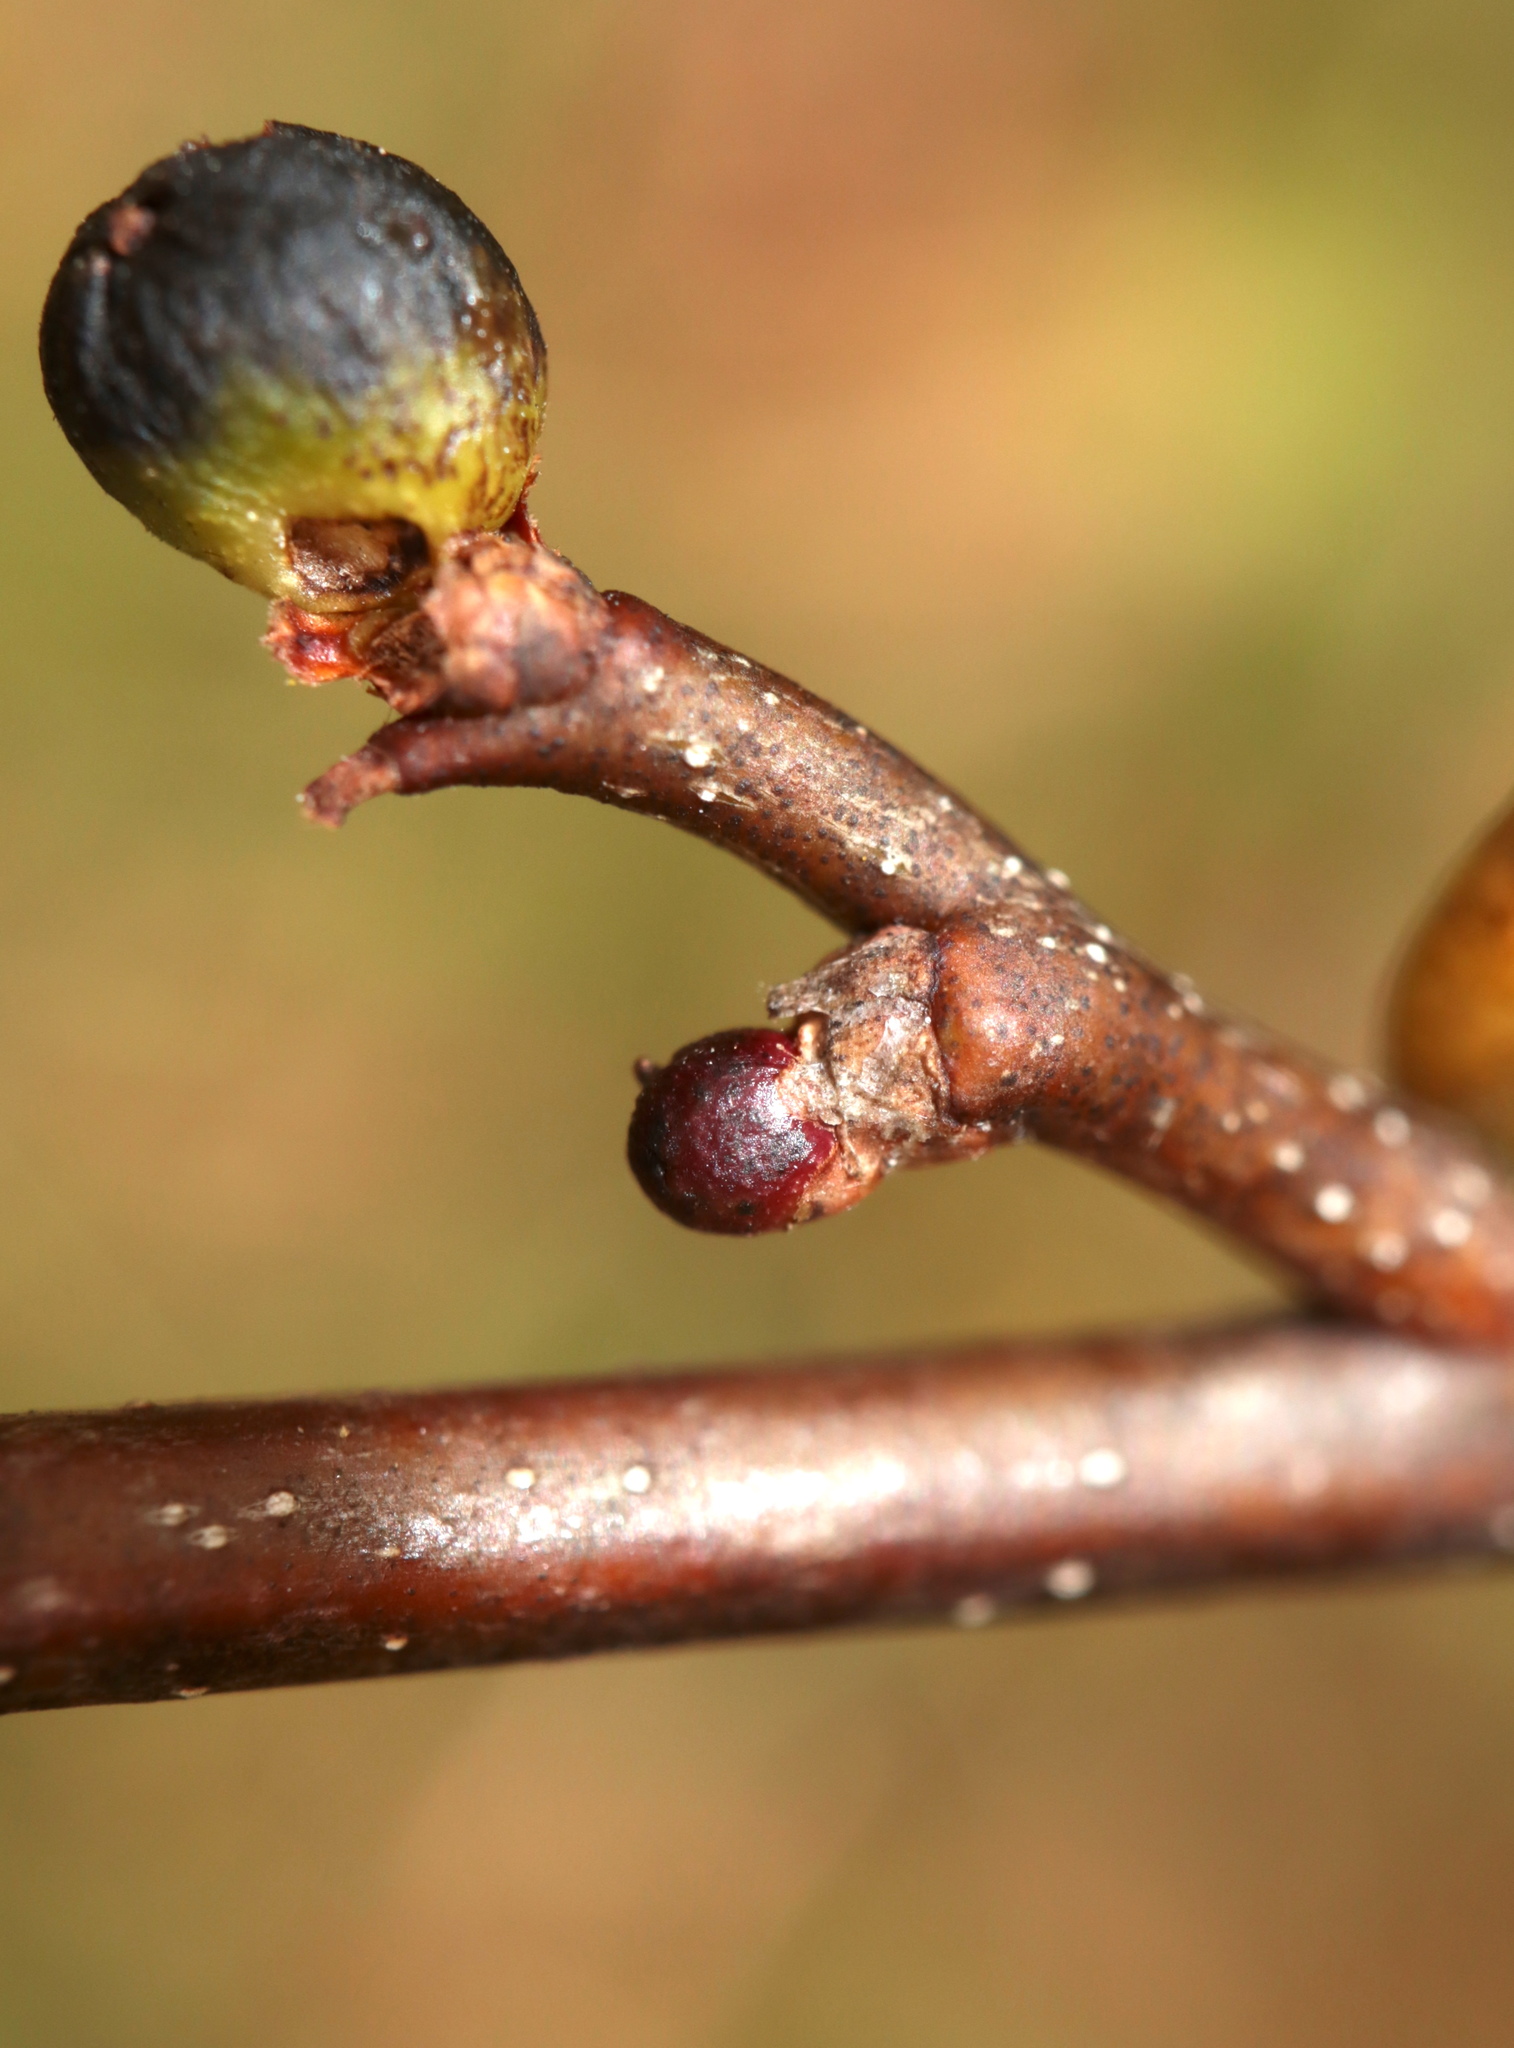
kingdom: Animalia
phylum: Arthropoda
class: Insecta
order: Hymenoptera
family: Cynipidae
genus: Callirhytis
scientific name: Callirhytis
